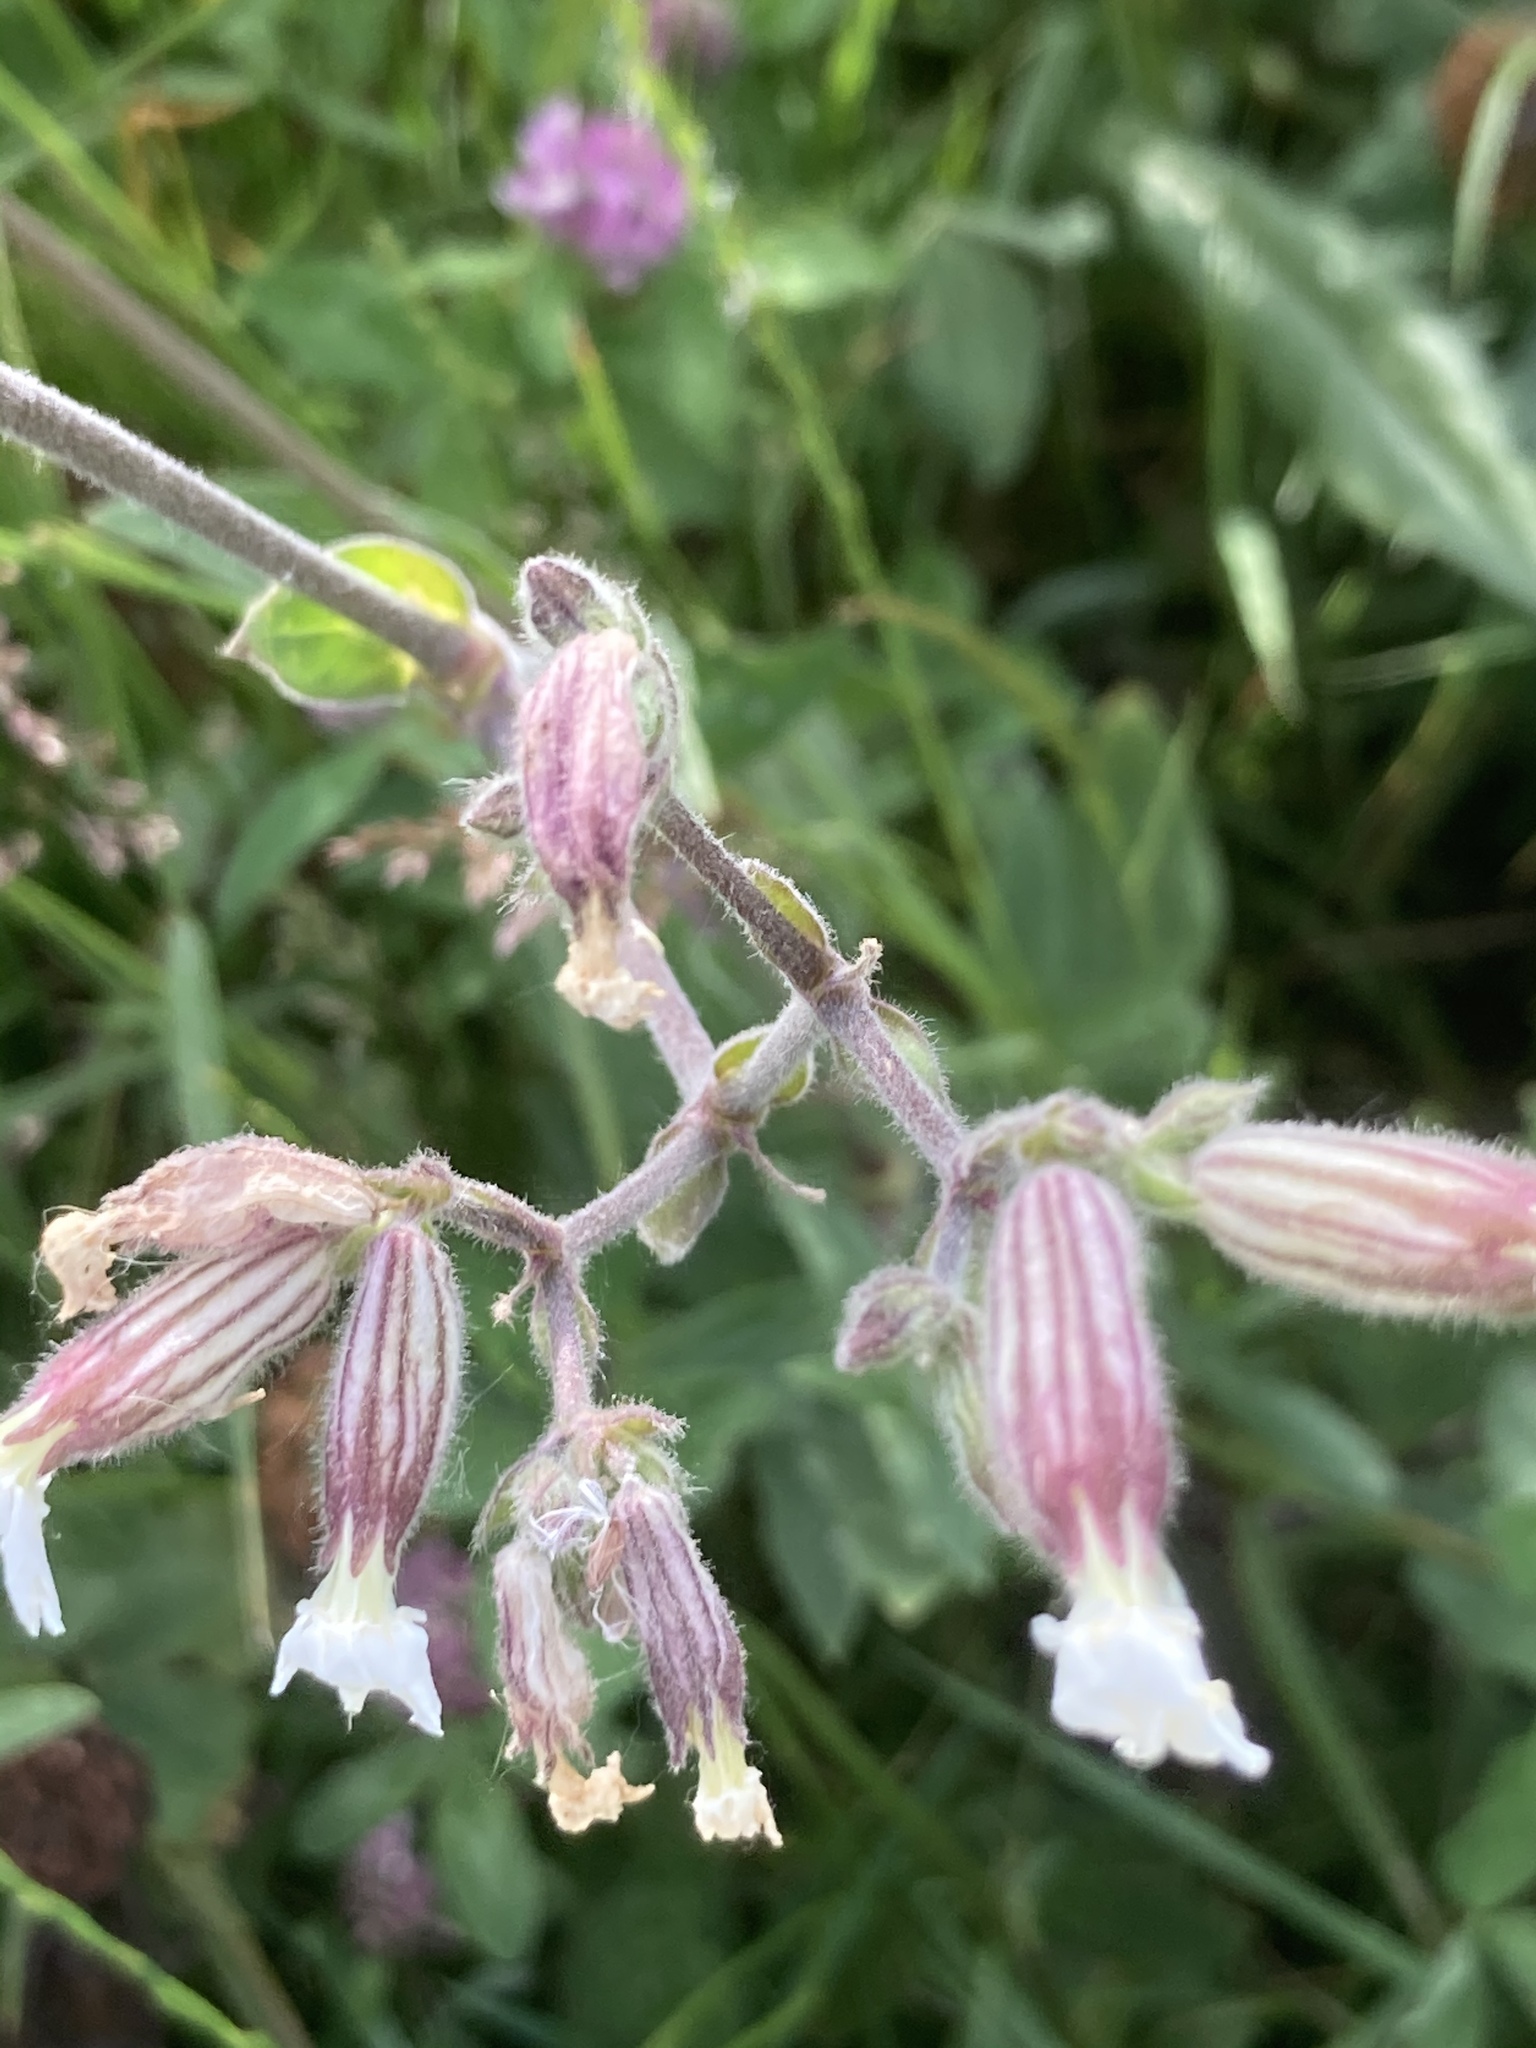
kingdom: Plantae
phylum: Tracheophyta
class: Magnoliopsida
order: Caryophyllales
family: Caryophyllaceae
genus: Silene
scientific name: Silene latifolia
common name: White campion
